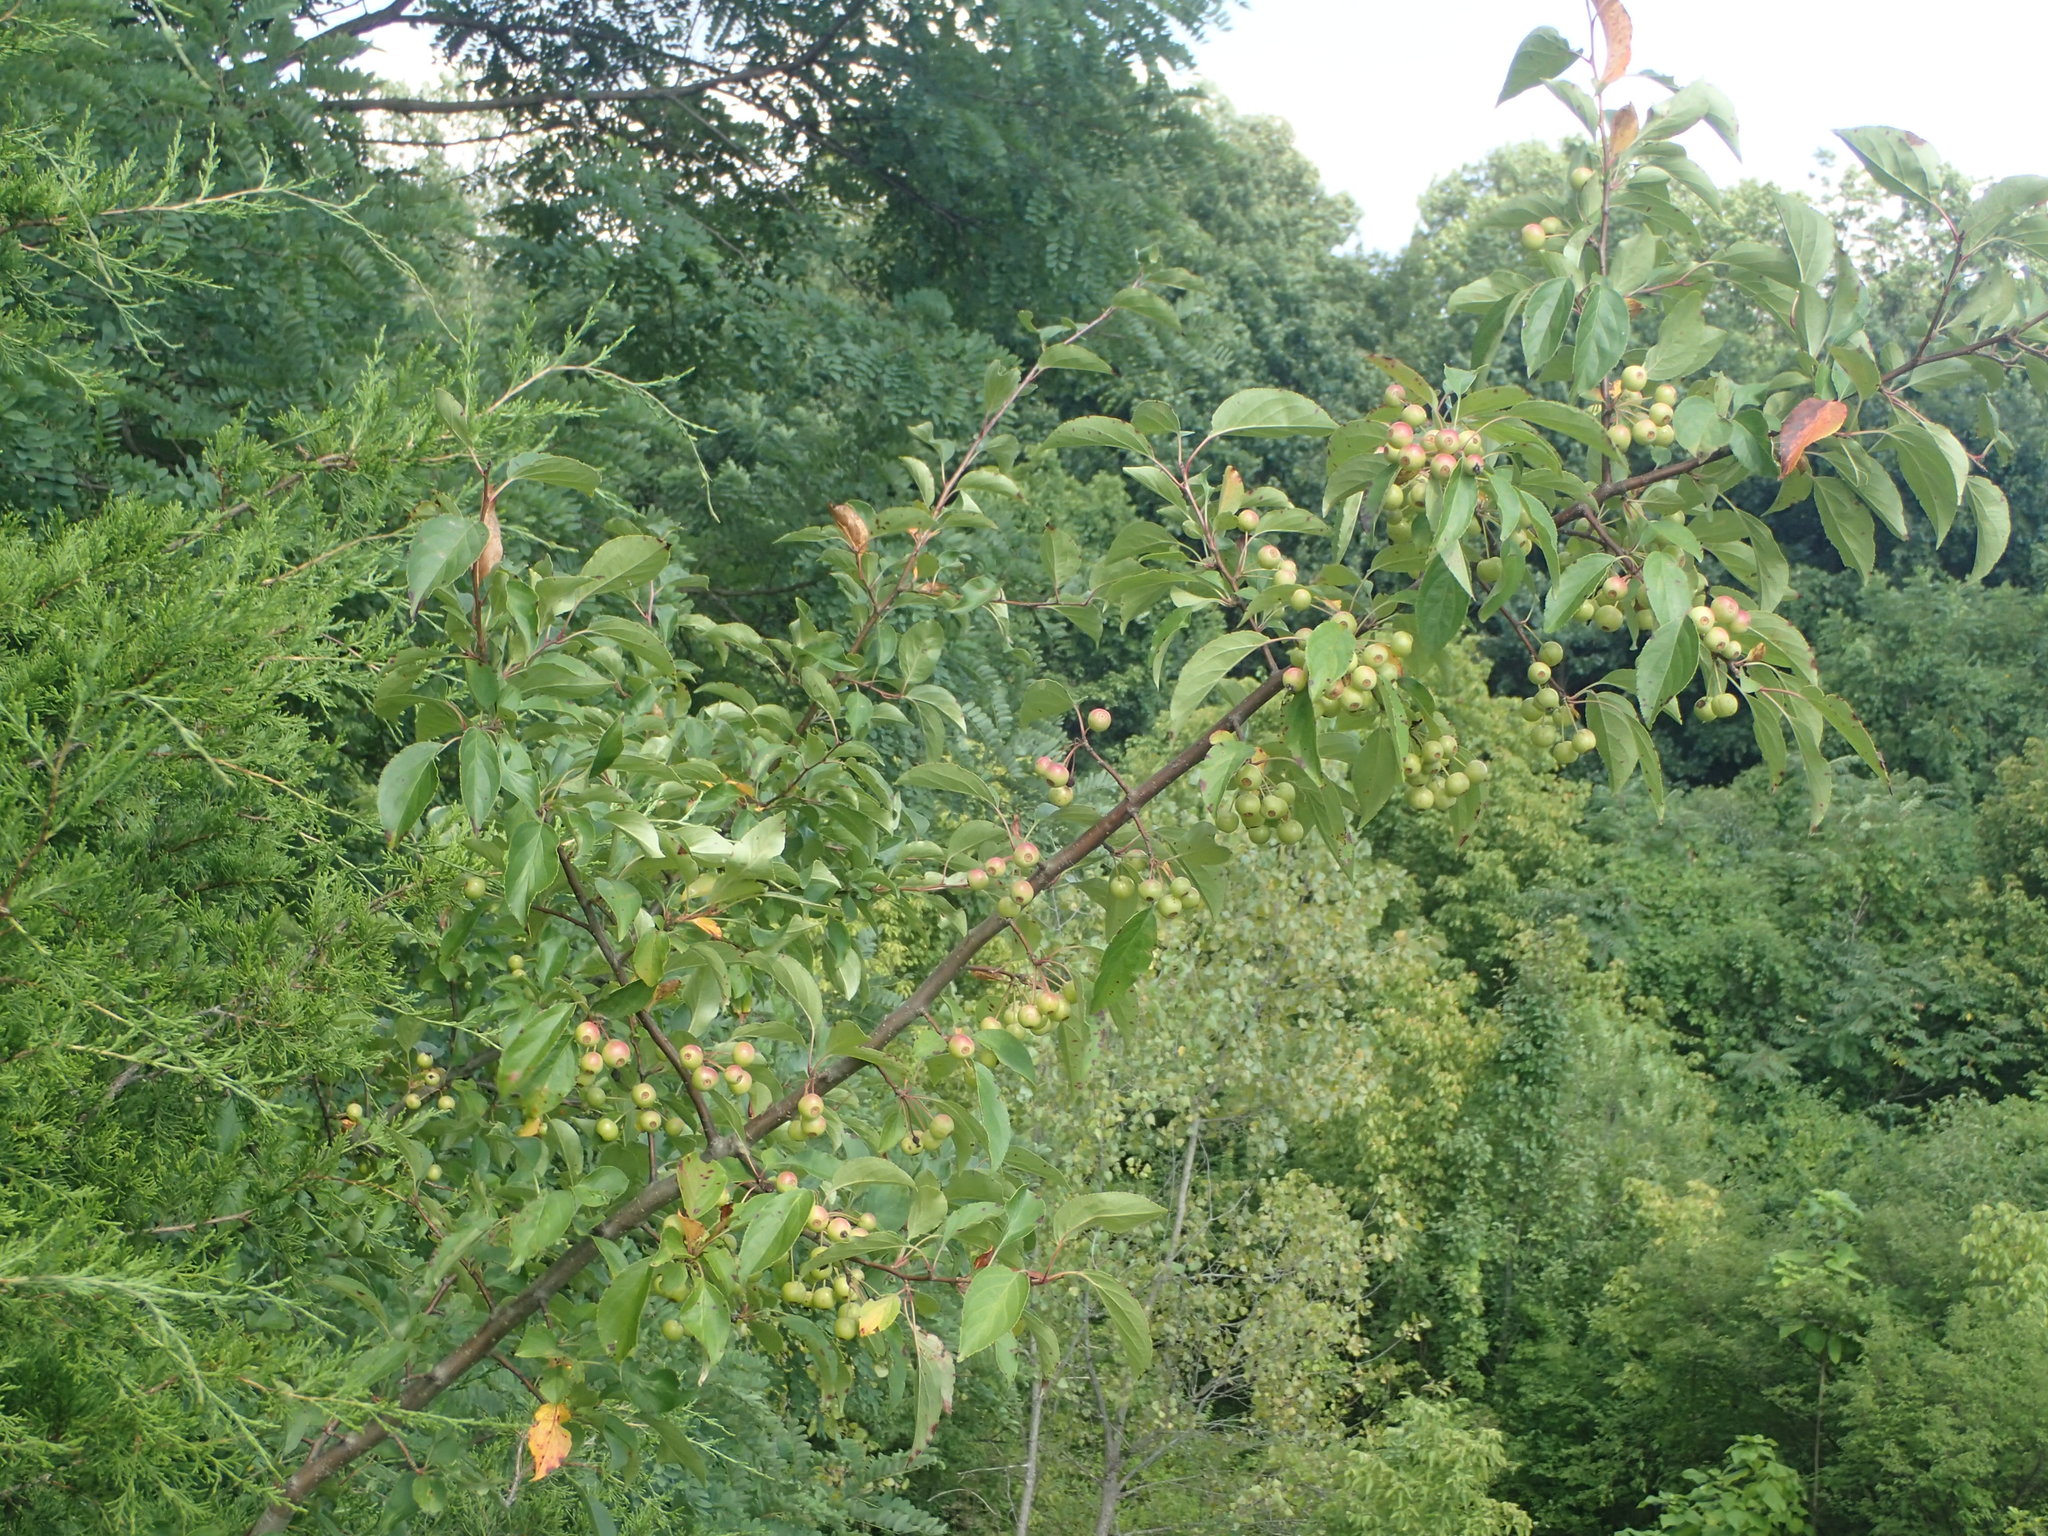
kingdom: Plantae
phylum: Tracheophyta
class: Magnoliopsida
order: Rosales
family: Rosaceae
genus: Pyrus
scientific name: Pyrus calleryana
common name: Callery pear
